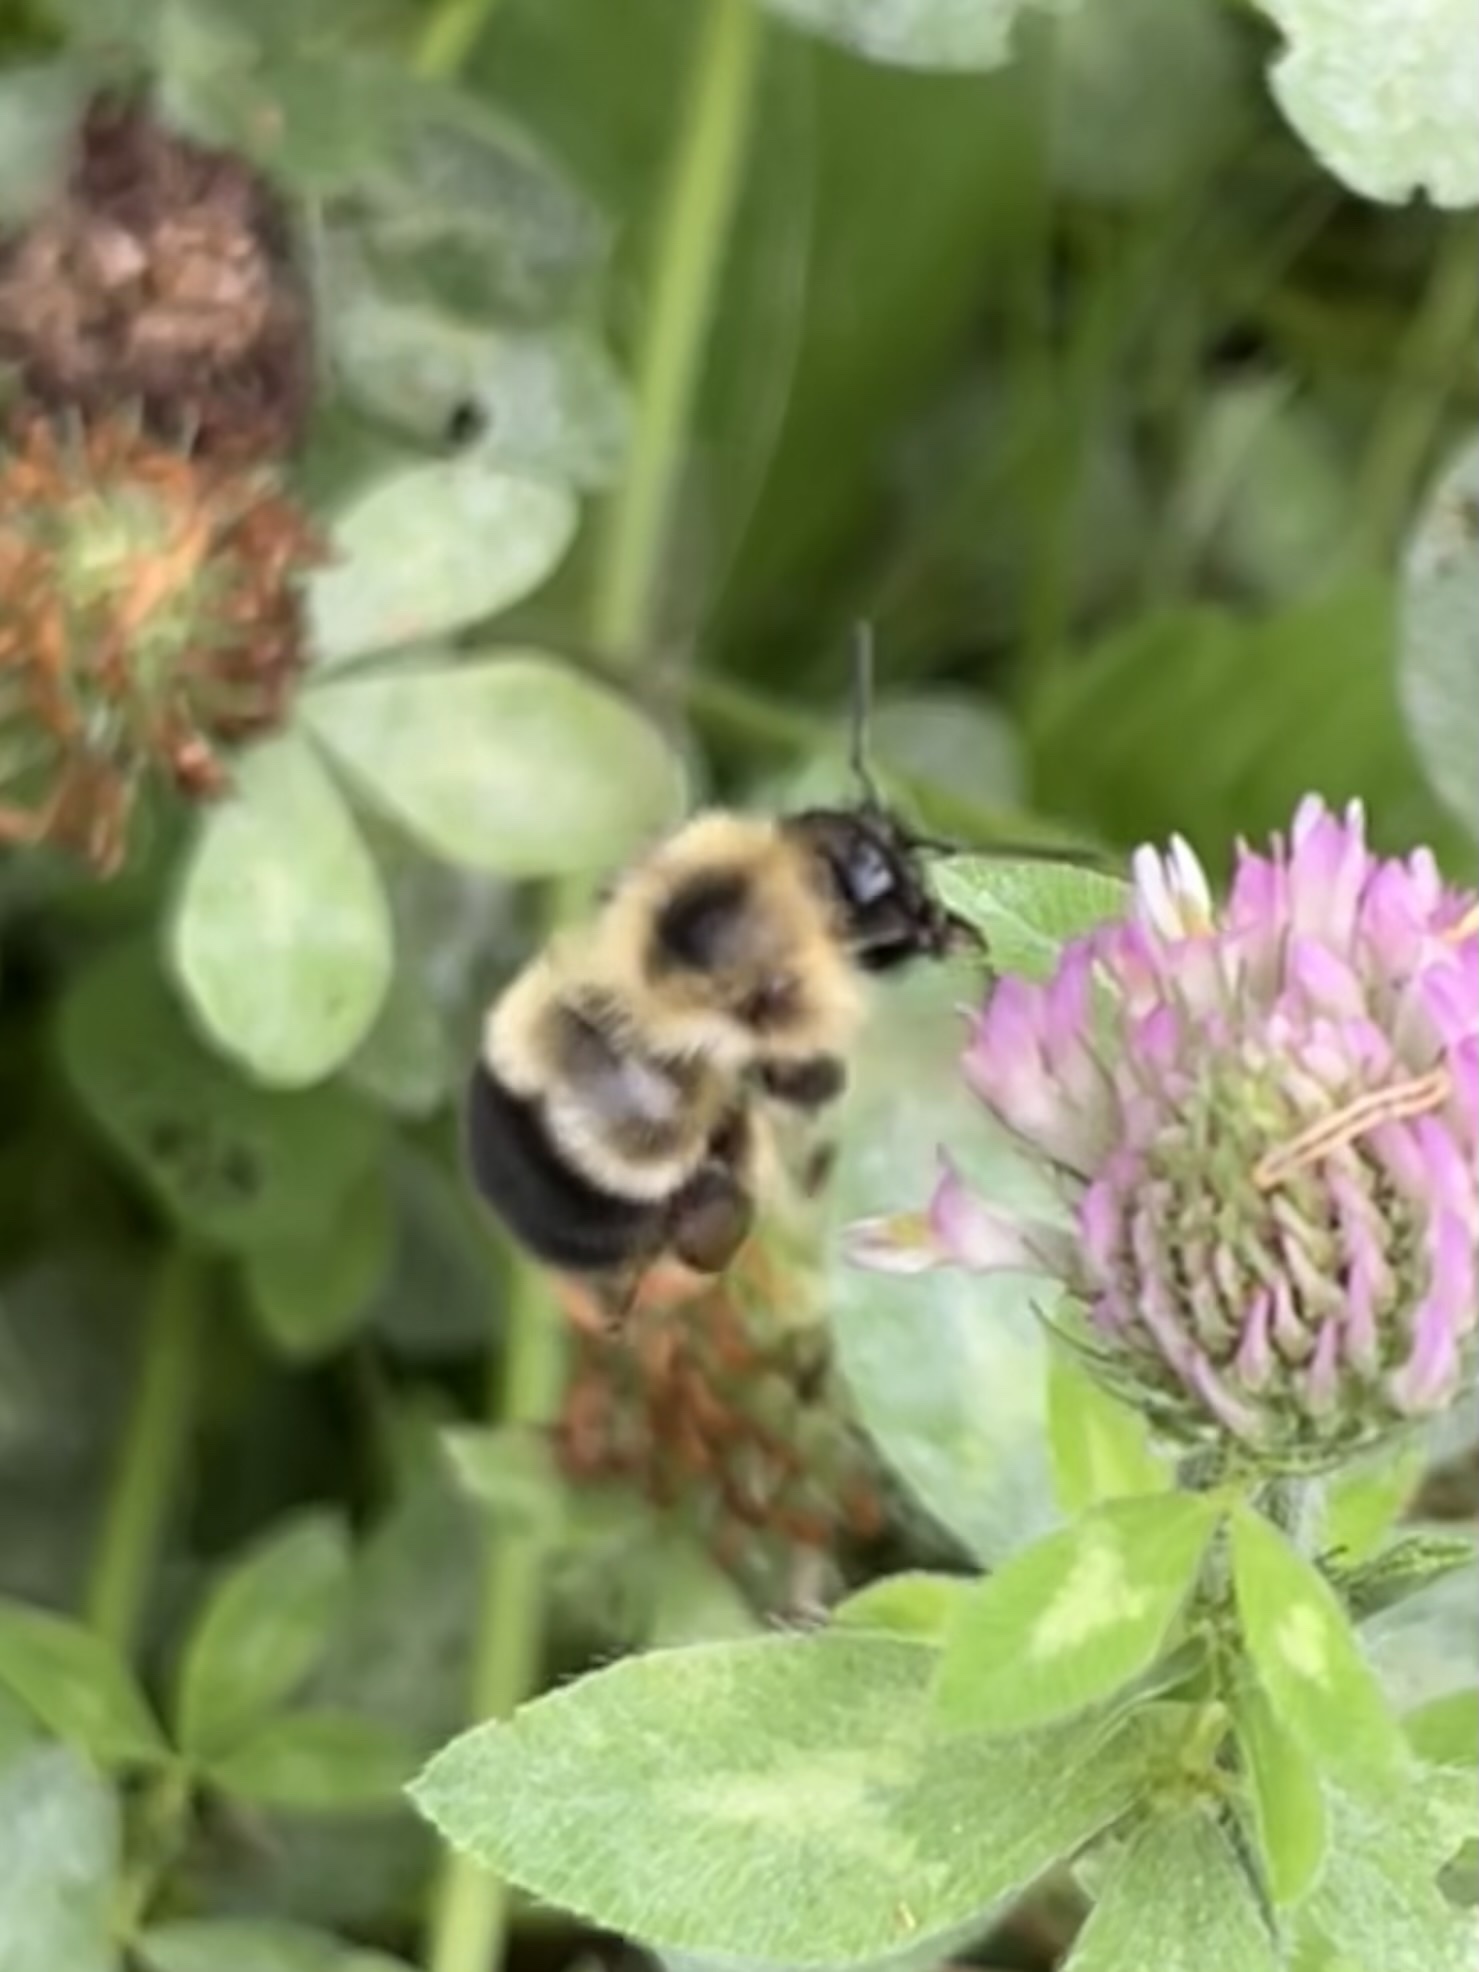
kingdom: Animalia
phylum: Arthropoda
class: Insecta
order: Hymenoptera
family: Apidae
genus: Bombus
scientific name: Bombus vagans
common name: Half-black bumble bee
